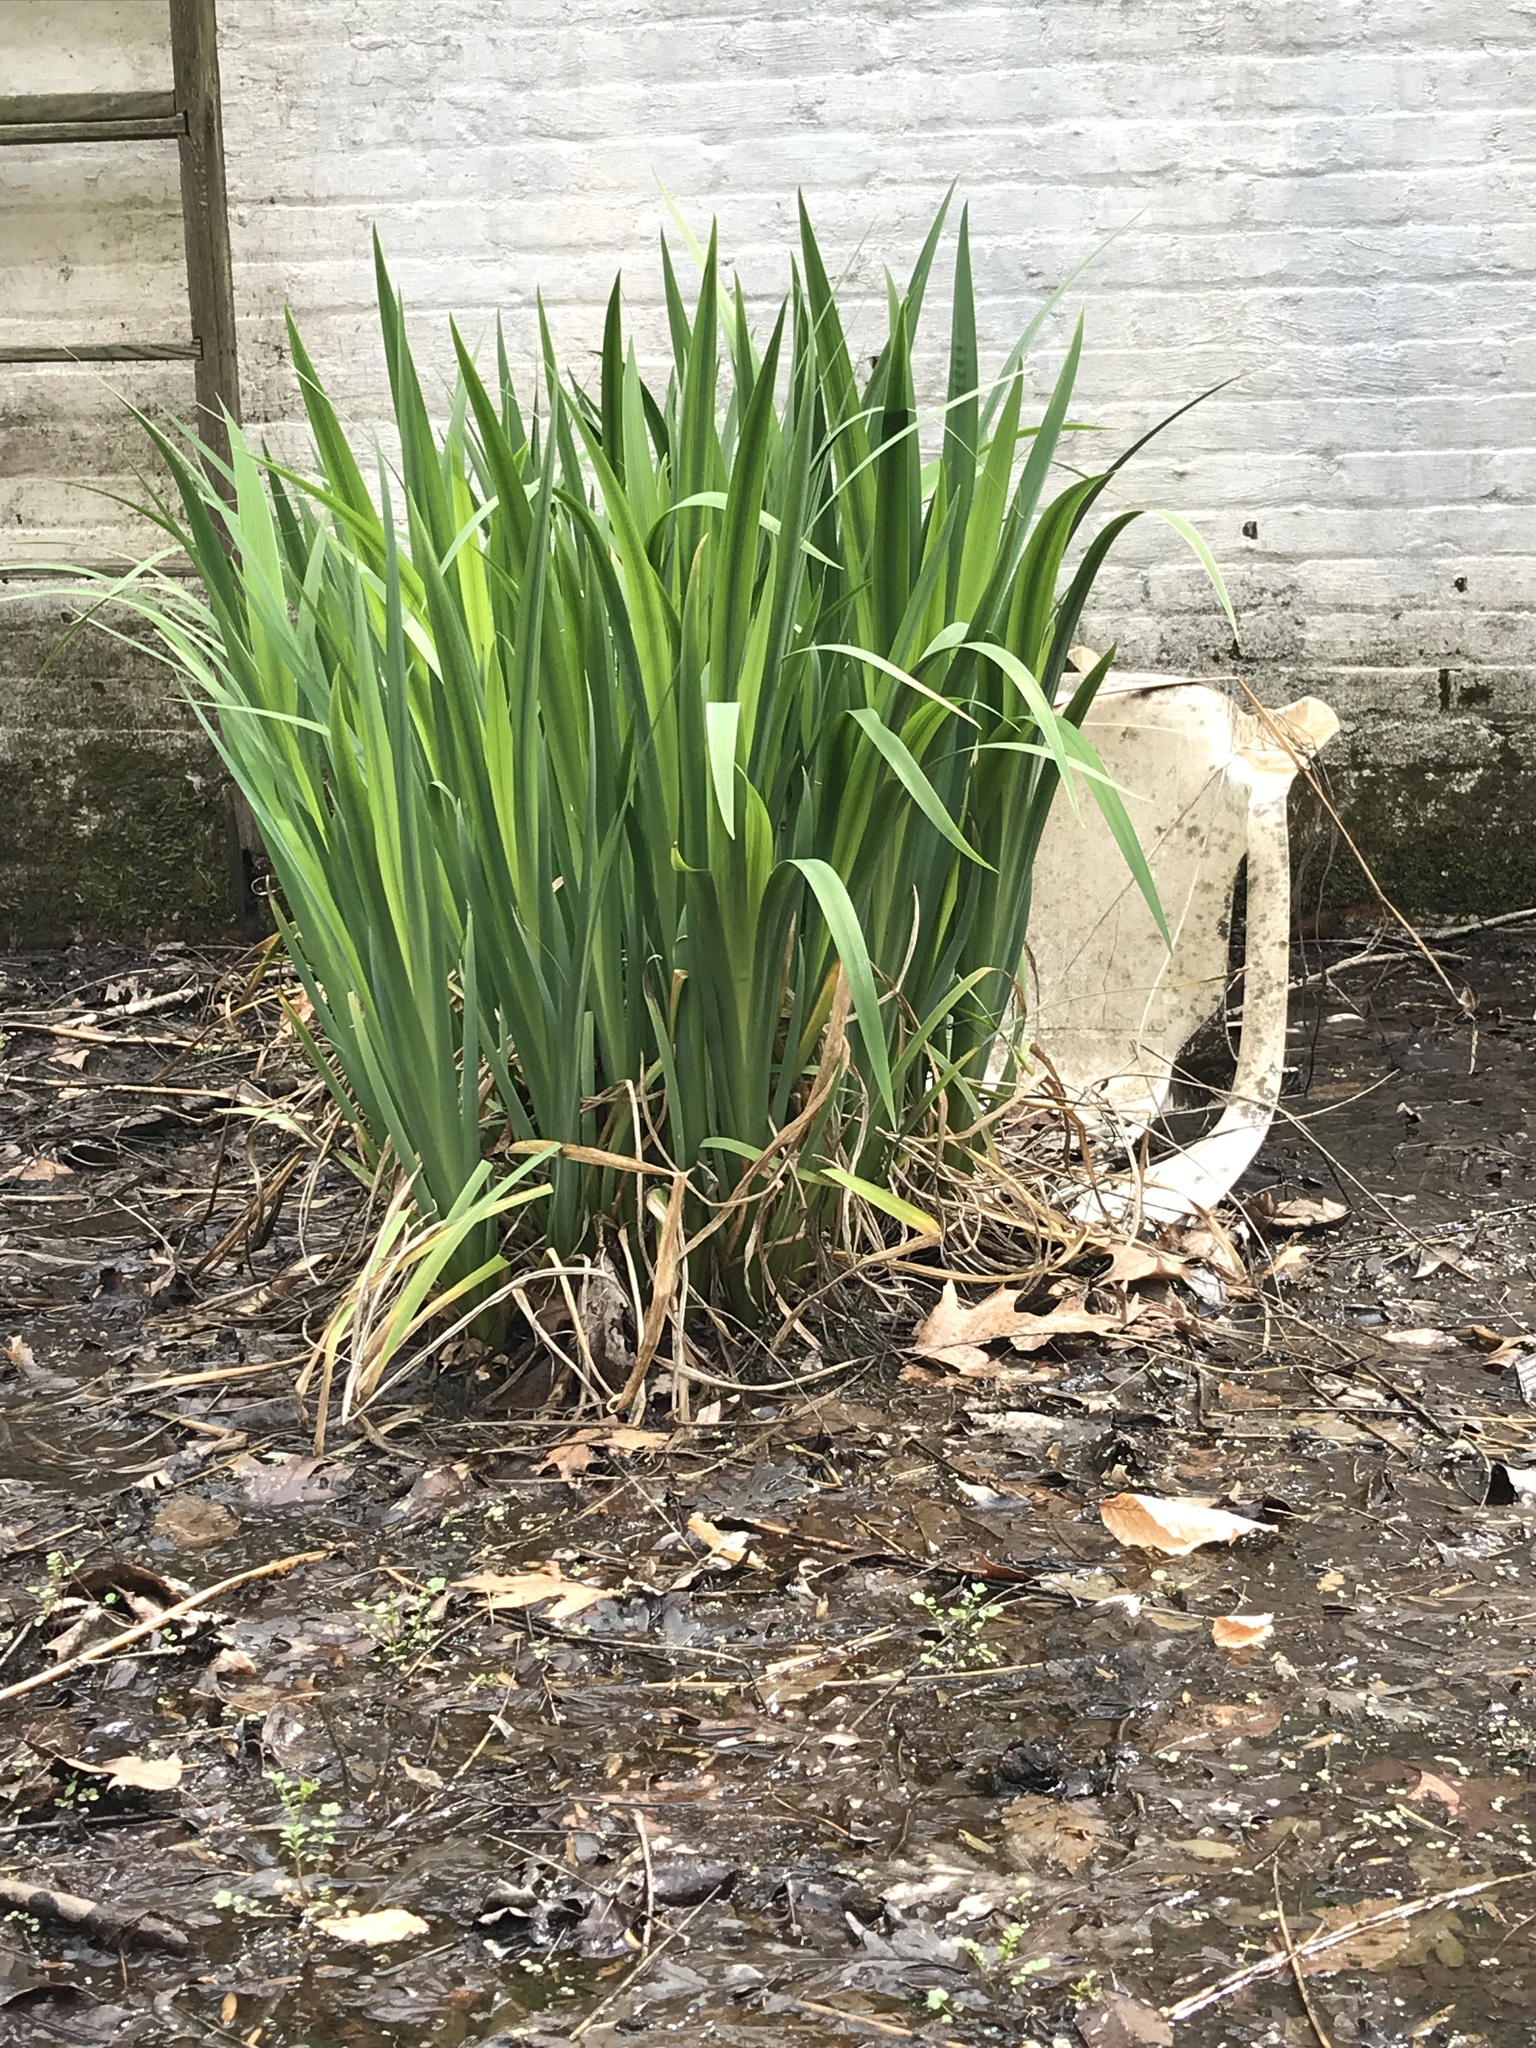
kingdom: Plantae
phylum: Tracheophyta
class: Liliopsida
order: Asparagales
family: Iridaceae
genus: Iris
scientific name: Iris pseudacorus
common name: Yellow flag
